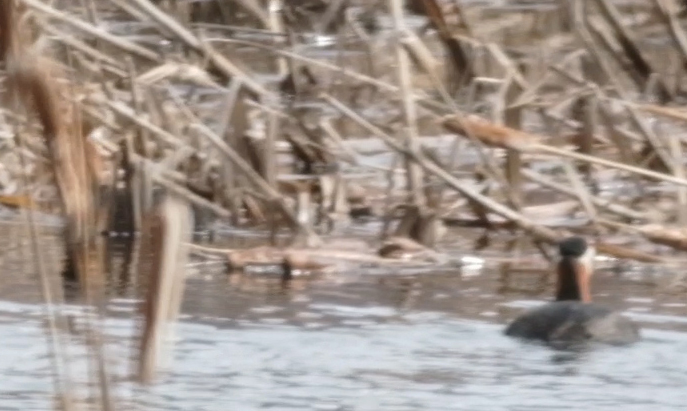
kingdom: Animalia
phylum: Chordata
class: Aves
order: Podicipediformes
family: Podicipedidae
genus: Podiceps
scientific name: Podiceps grisegena
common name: Red-necked grebe
